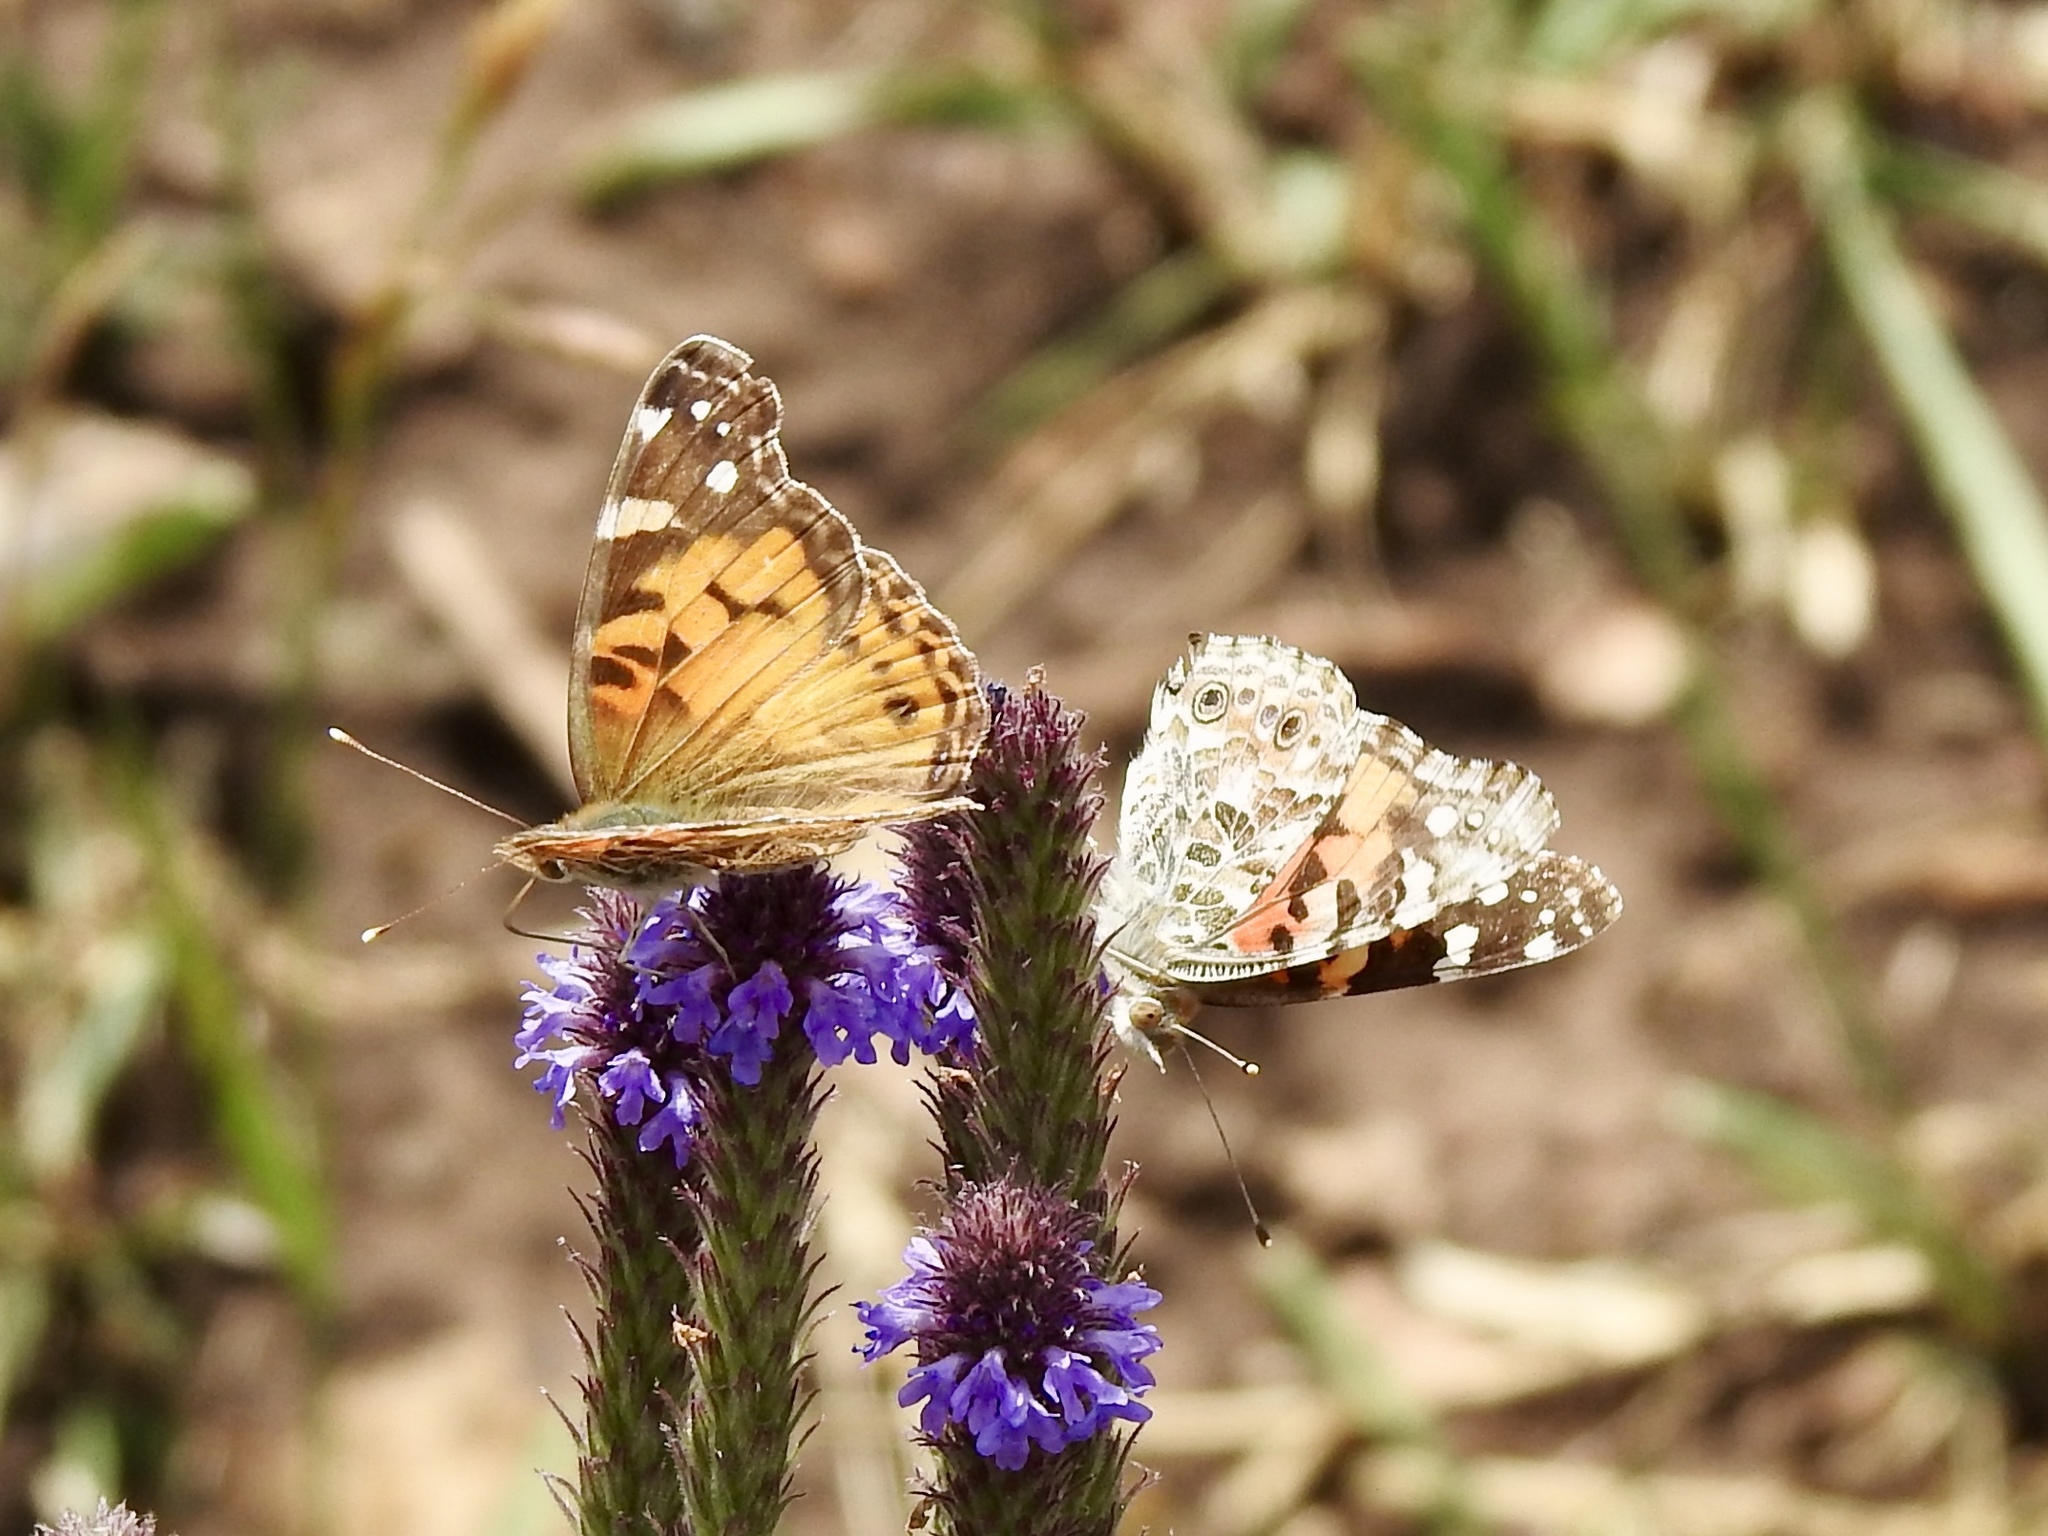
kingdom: Animalia
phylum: Arthropoda
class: Insecta
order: Lepidoptera
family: Nymphalidae
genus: Vanessa
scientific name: Vanessa cardui
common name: Painted lady
